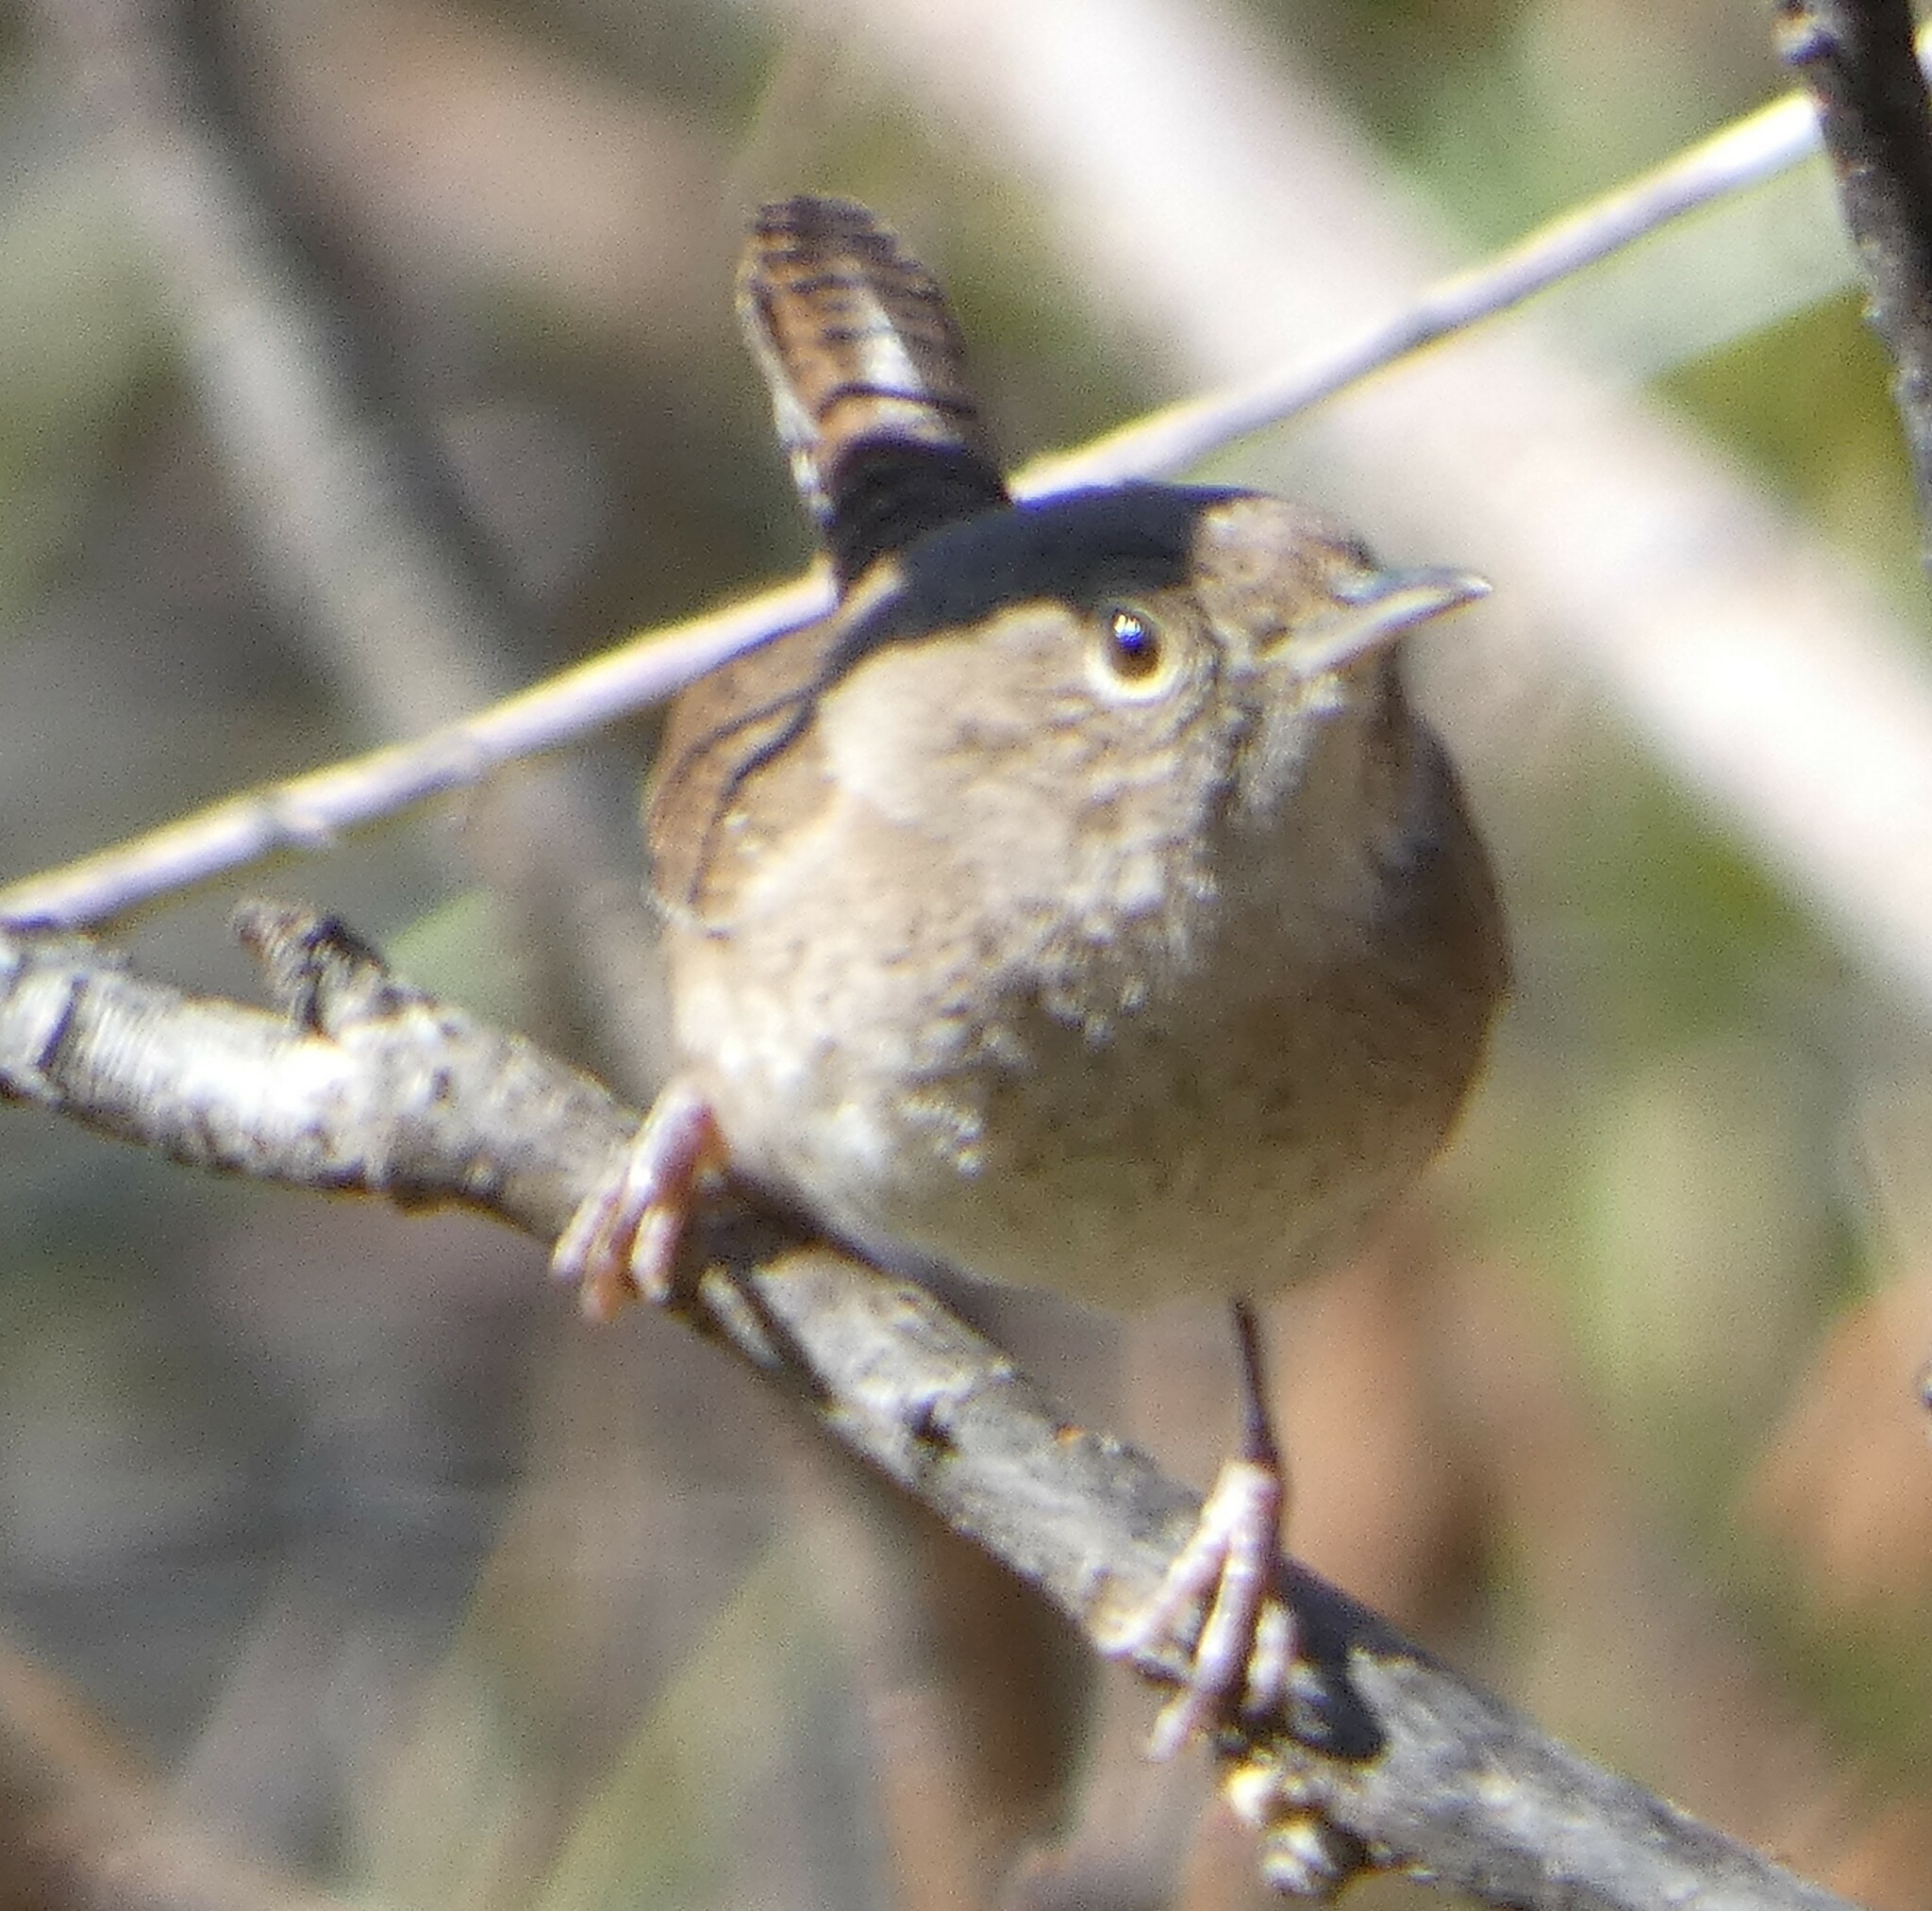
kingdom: Animalia
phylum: Chordata
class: Aves
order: Passeriformes
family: Troglodytidae
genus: Troglodytes
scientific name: Troglodytes aedon
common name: House wren
